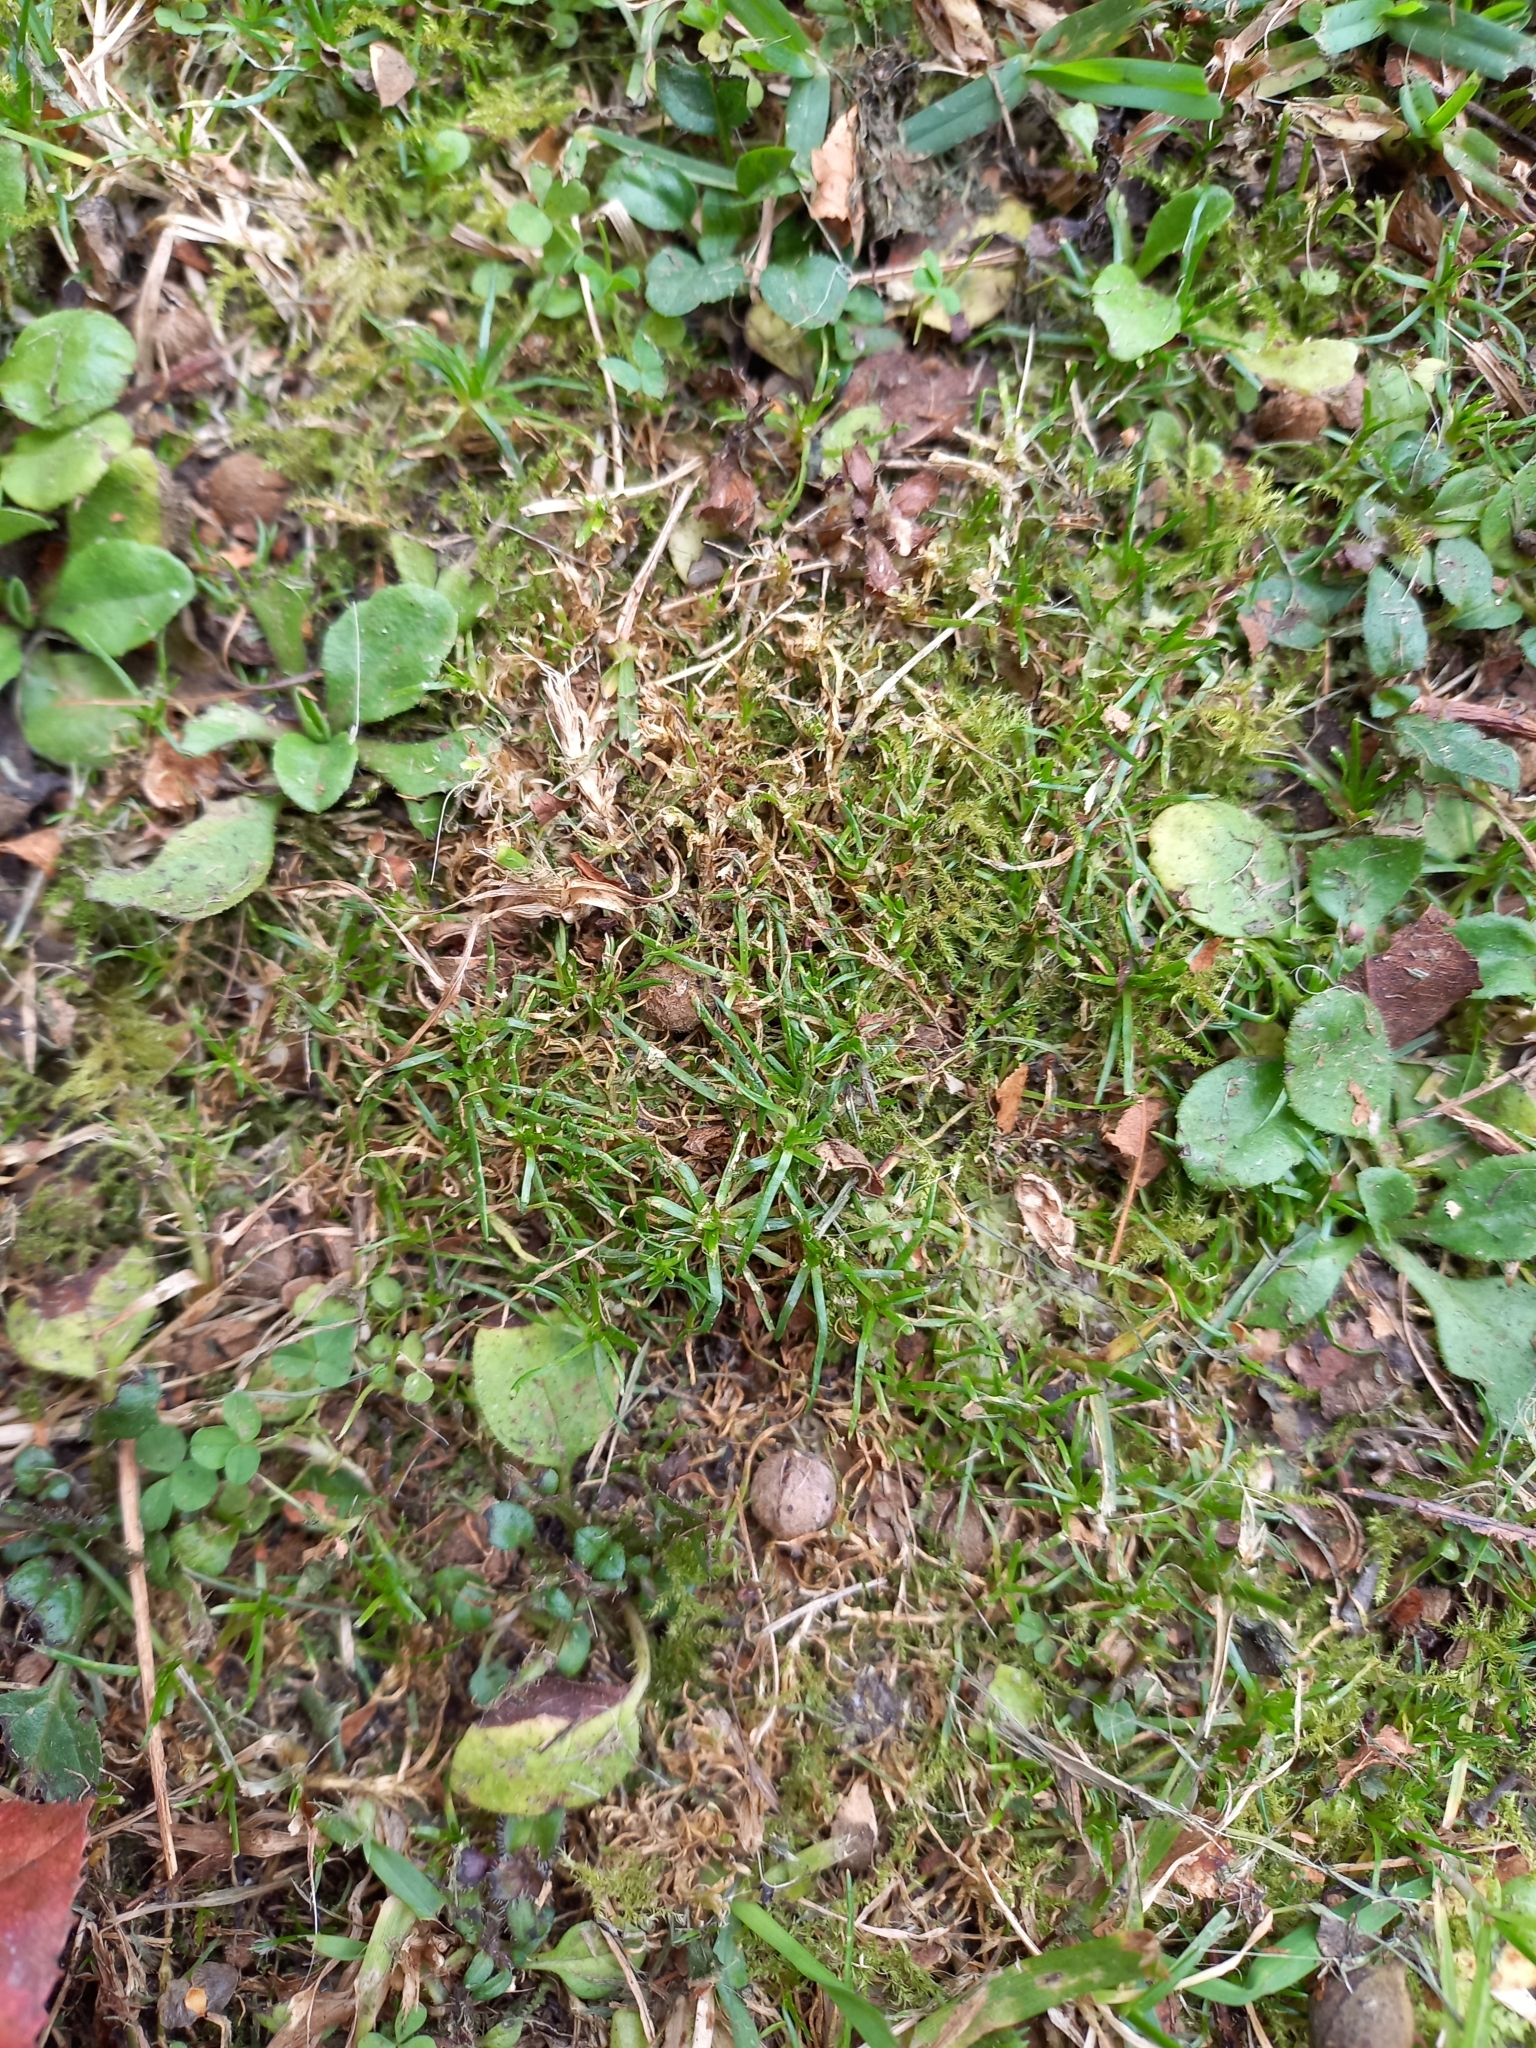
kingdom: Plantae
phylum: Tracheophyta
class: Magnoliopsida
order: Caryophyllales
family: Caryophyllaceae
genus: Sagina
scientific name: Sagina procumbens
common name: Procumbent pearlwort
